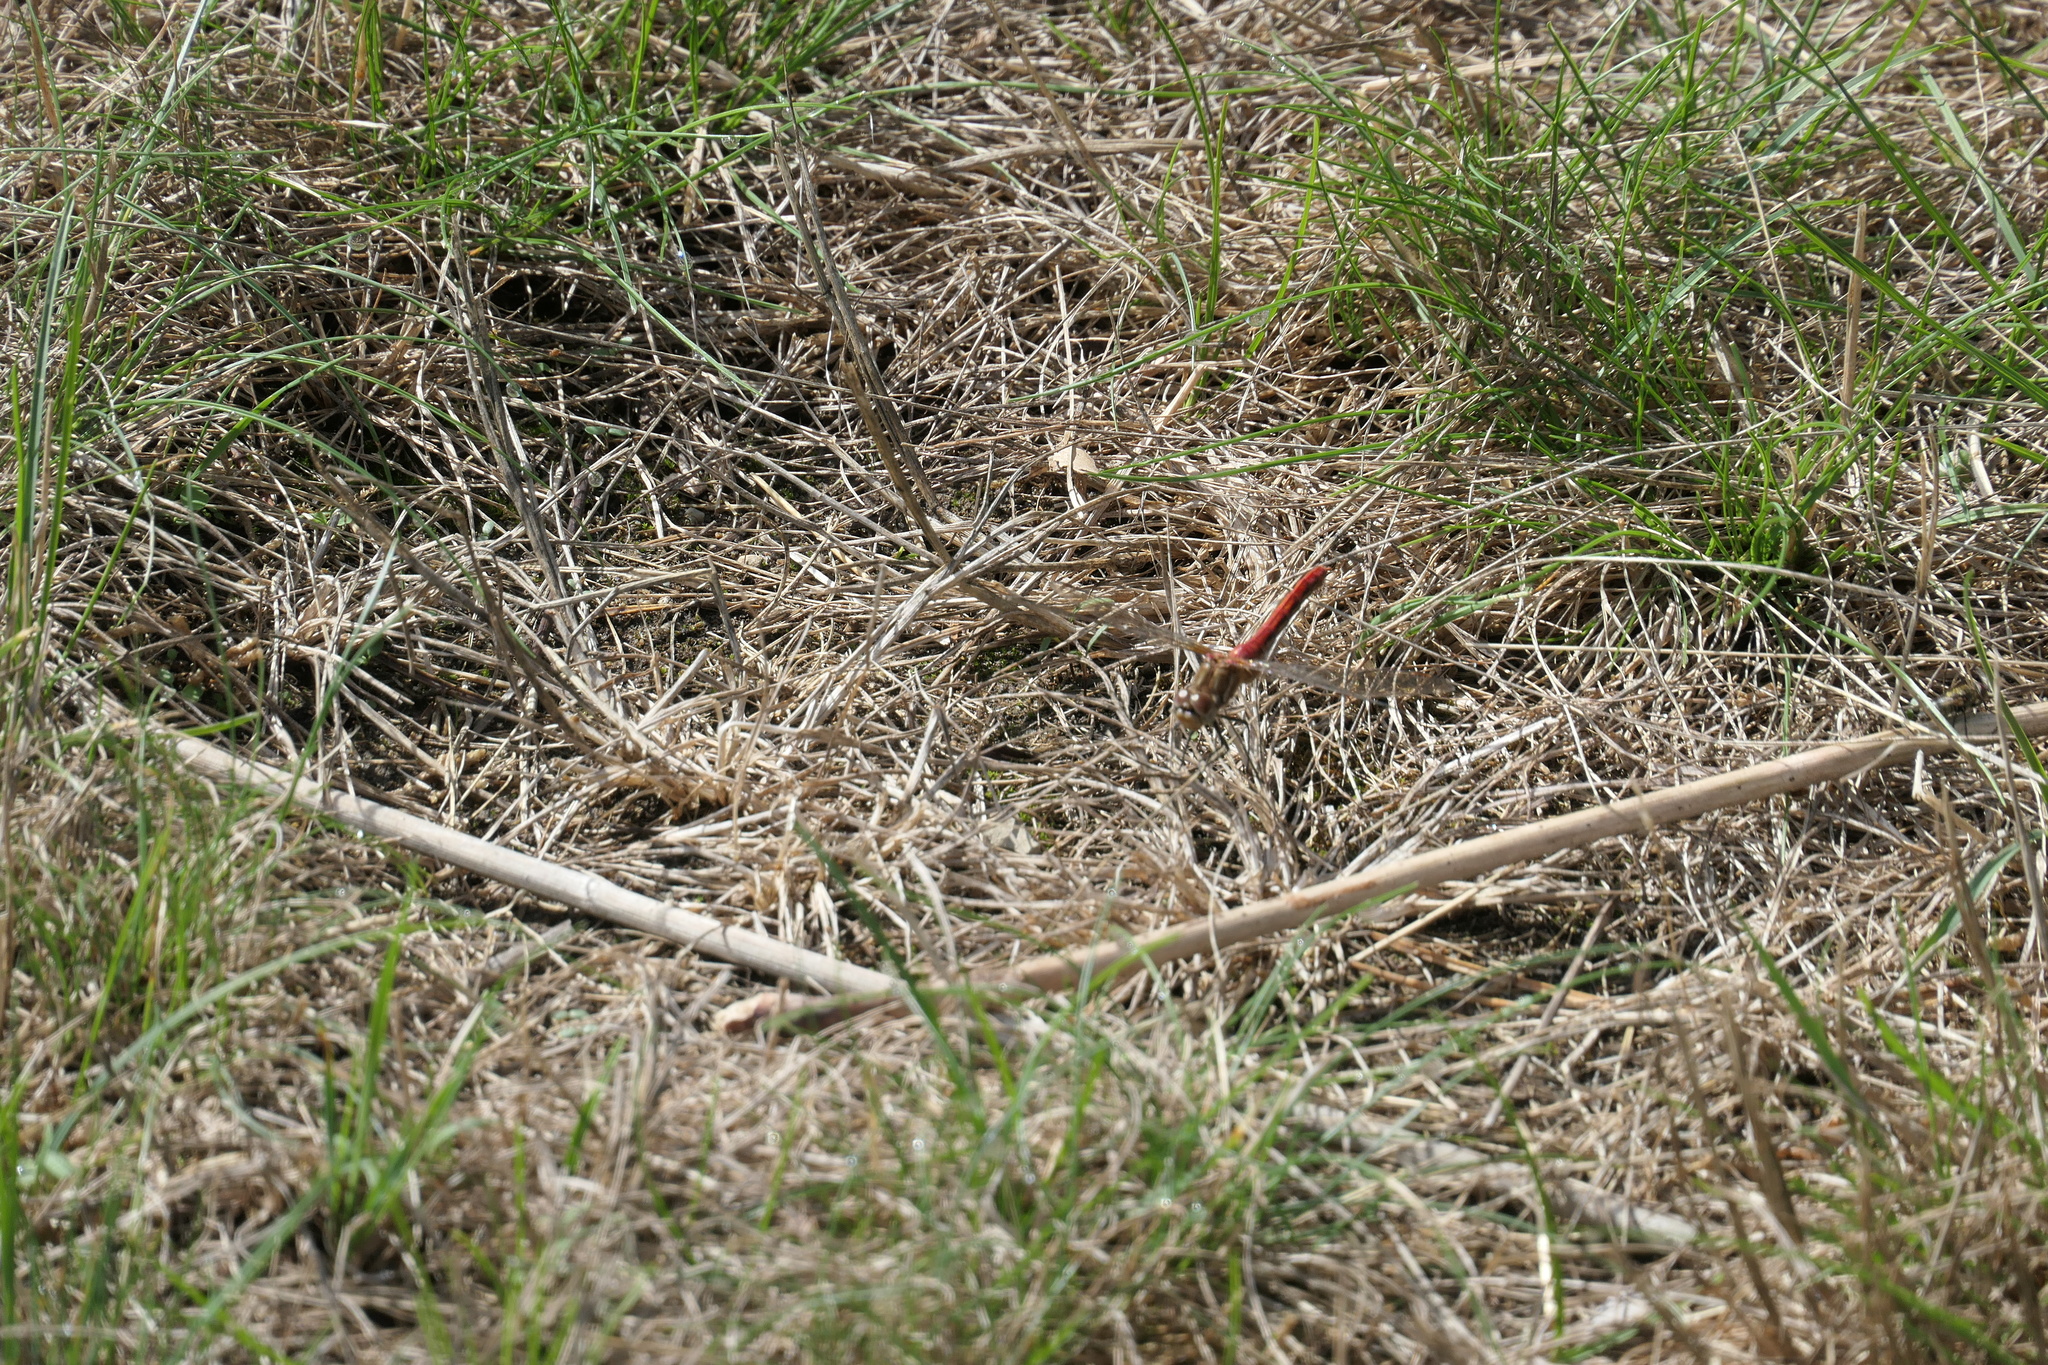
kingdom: Animalia
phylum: Arthropoda
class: Insecta
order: Odonata
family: Libellulidae
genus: Sympetrum
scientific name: Sympetrum pallipes
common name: Striped meadowhawk
